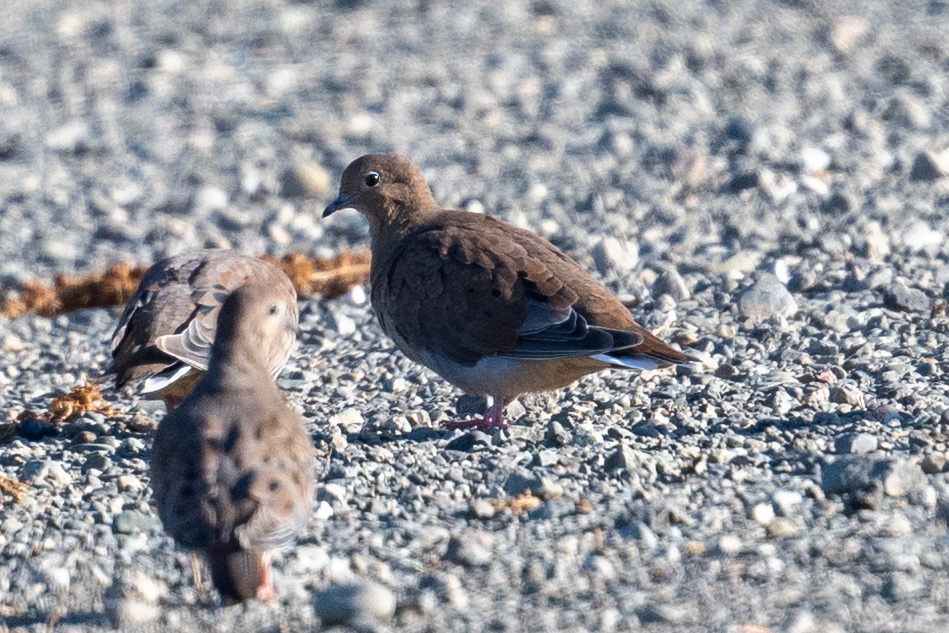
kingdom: Animalia
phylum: Chordata
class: Aves
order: Columbiformes
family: Columbidae
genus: Zenaida
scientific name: Zenaida macroura
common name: Mourning dove
